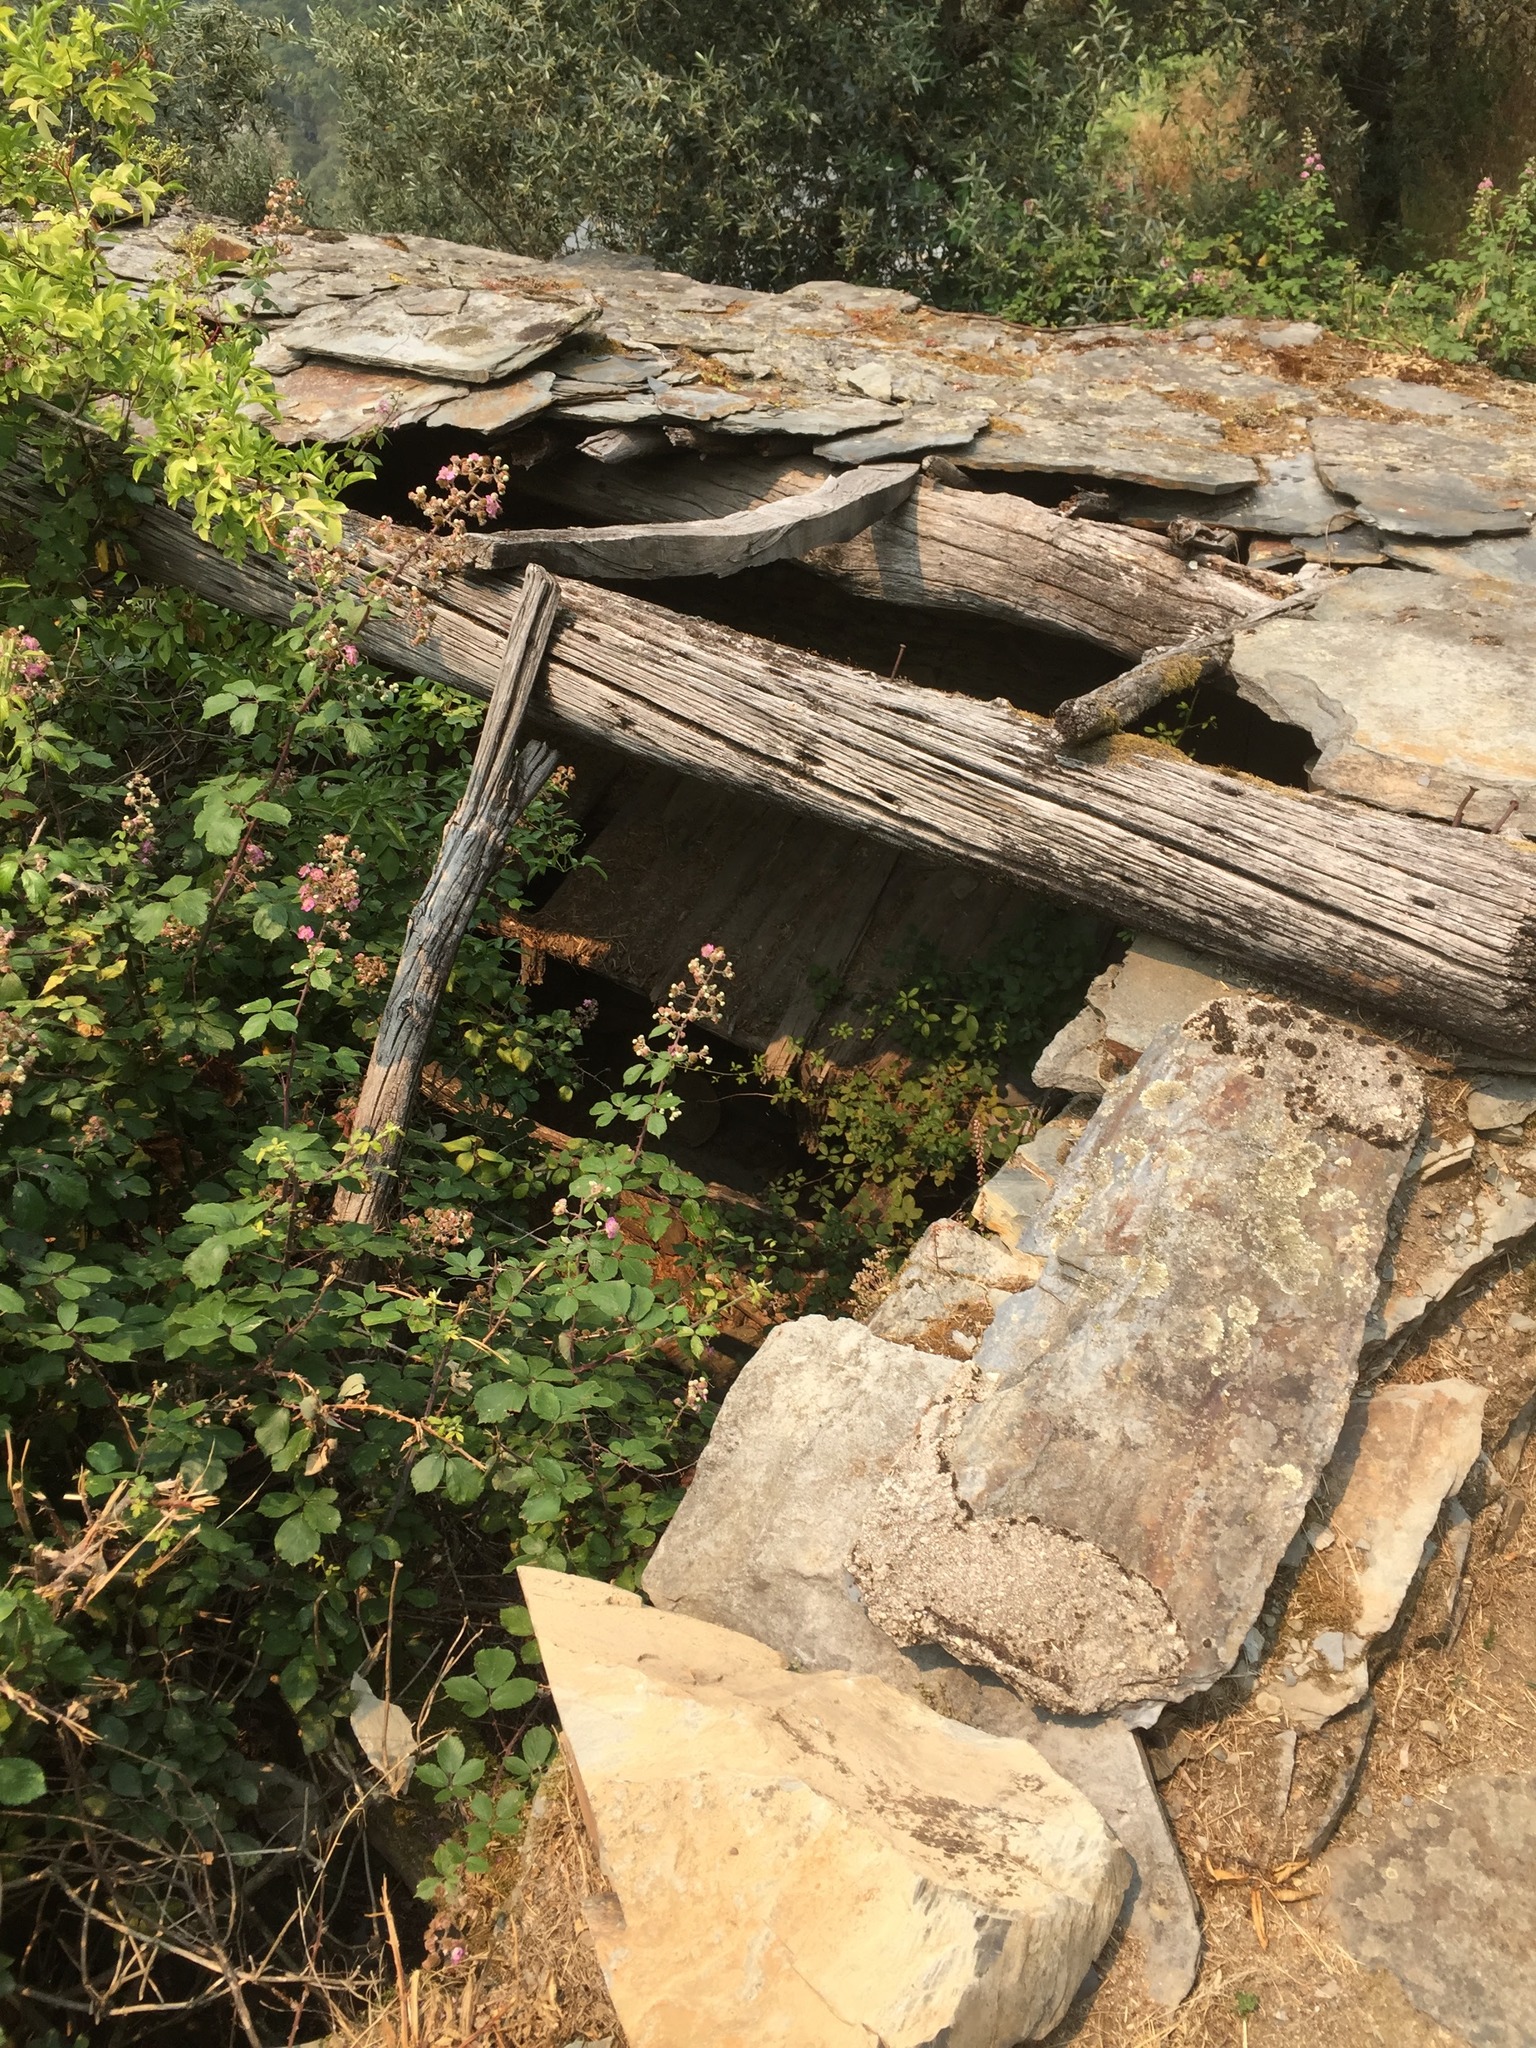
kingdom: Plantae
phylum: Tracheophyta
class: Magnoliopsida
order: Lamiales
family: Oleaceae
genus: Olea
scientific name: Olea europaea
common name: Olive
